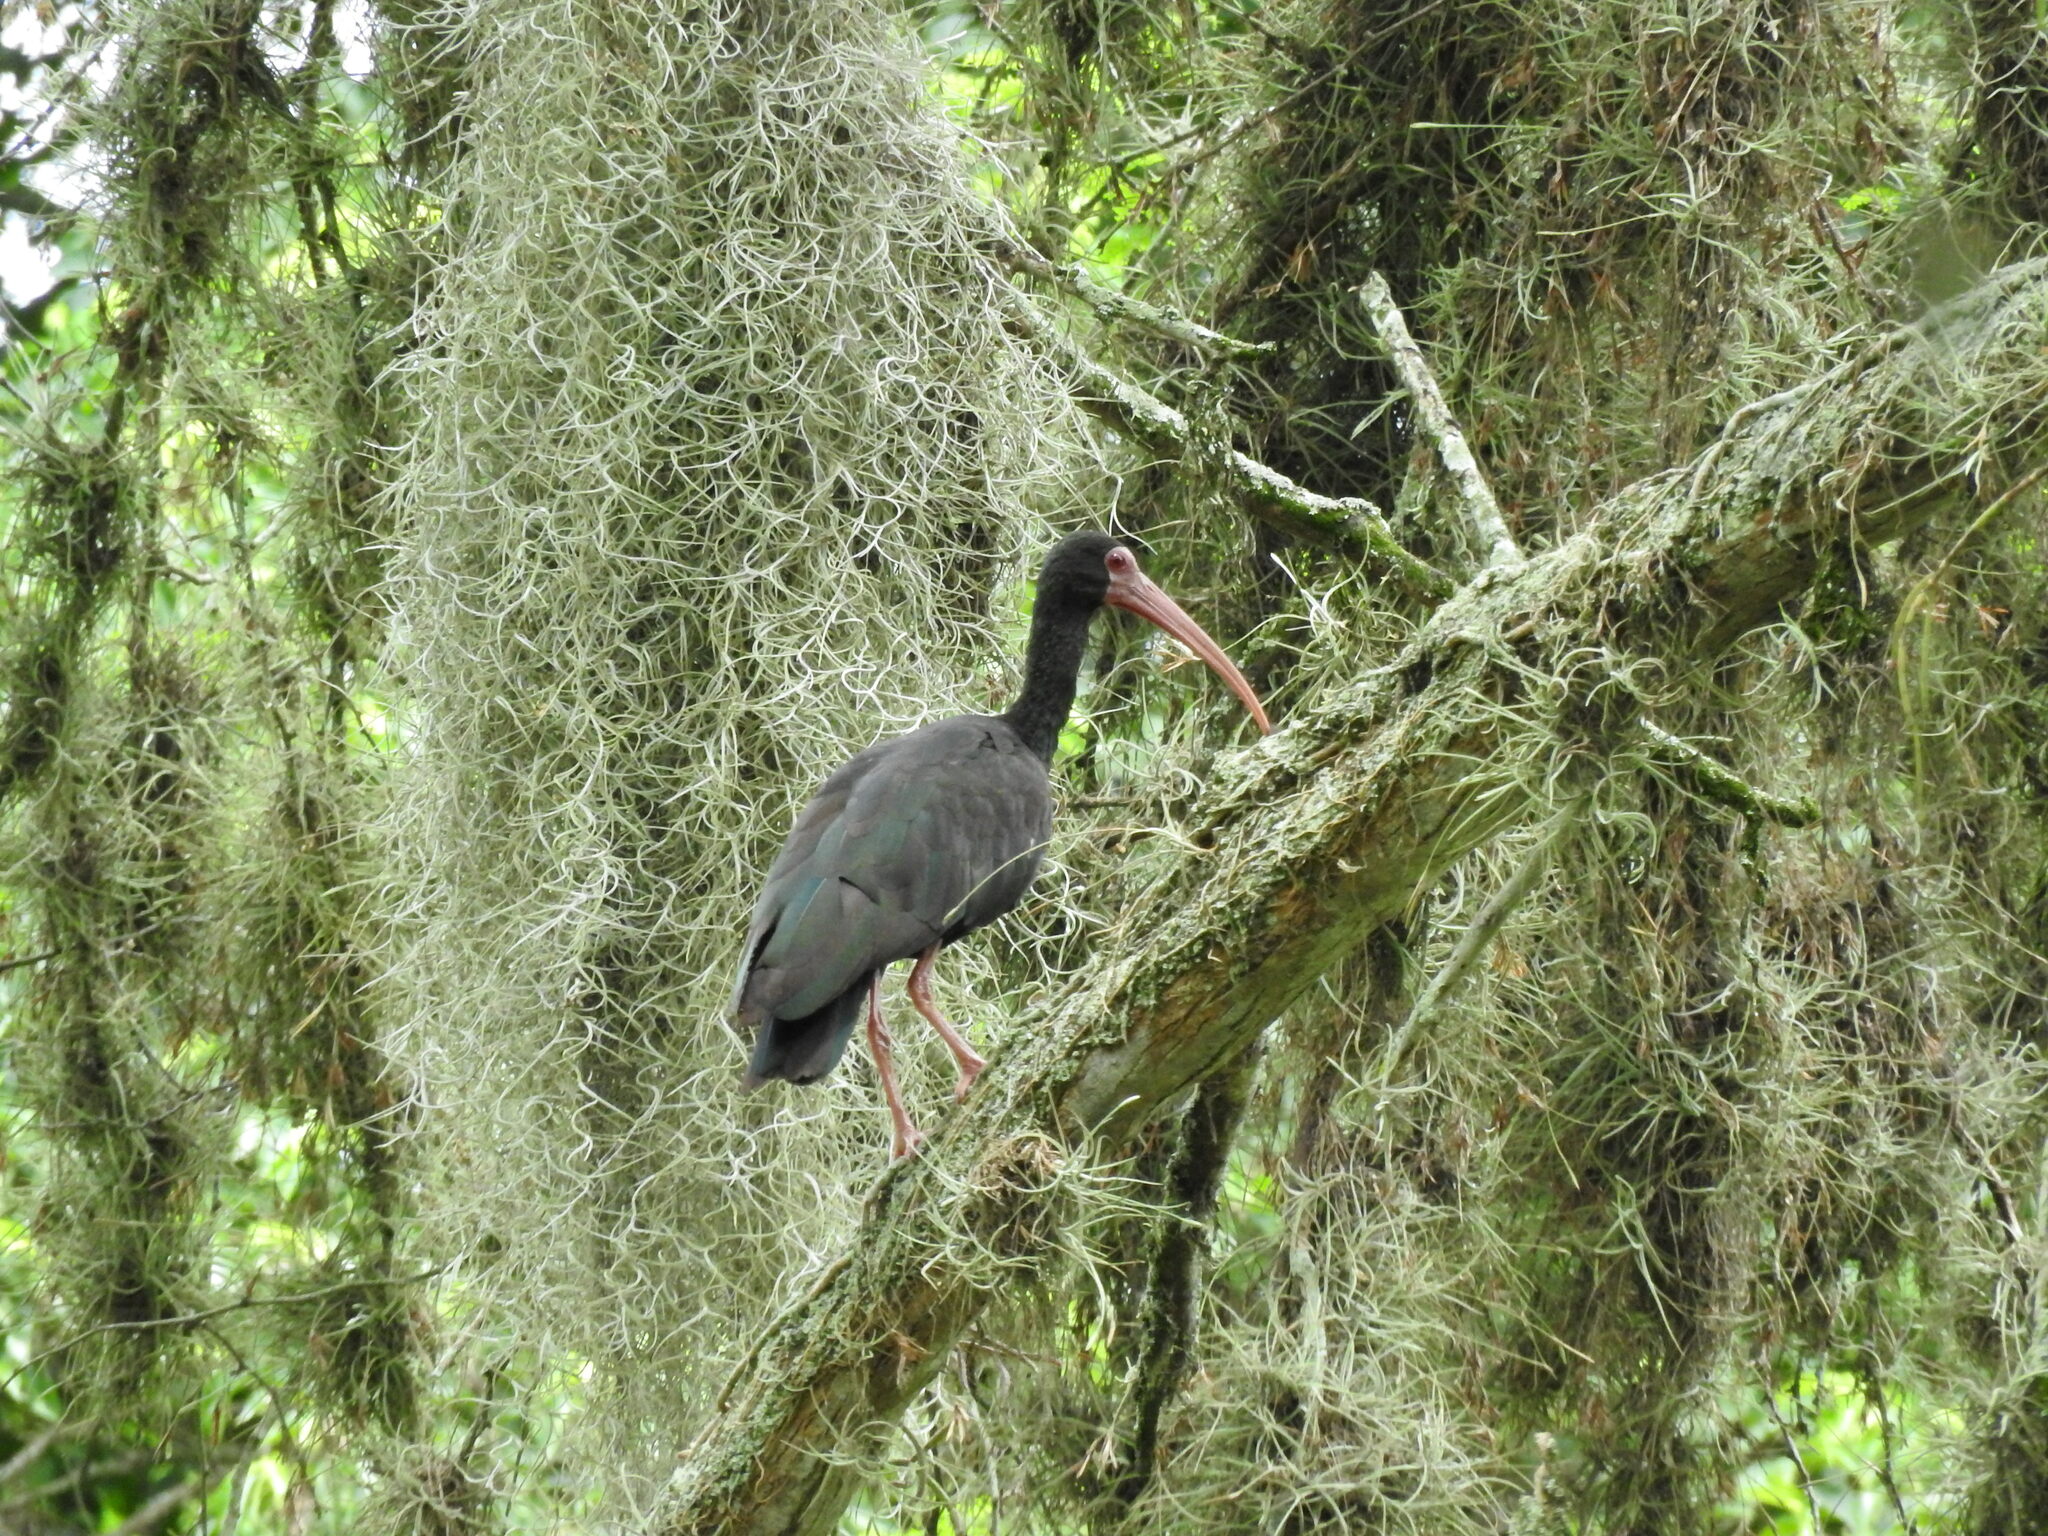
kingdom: Animalia
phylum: Chordata
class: Aves
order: Pelecaniformes
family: Threskiornithidae
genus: Phimosus
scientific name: Phimosus infuscatus
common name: Bare-faced ibis
